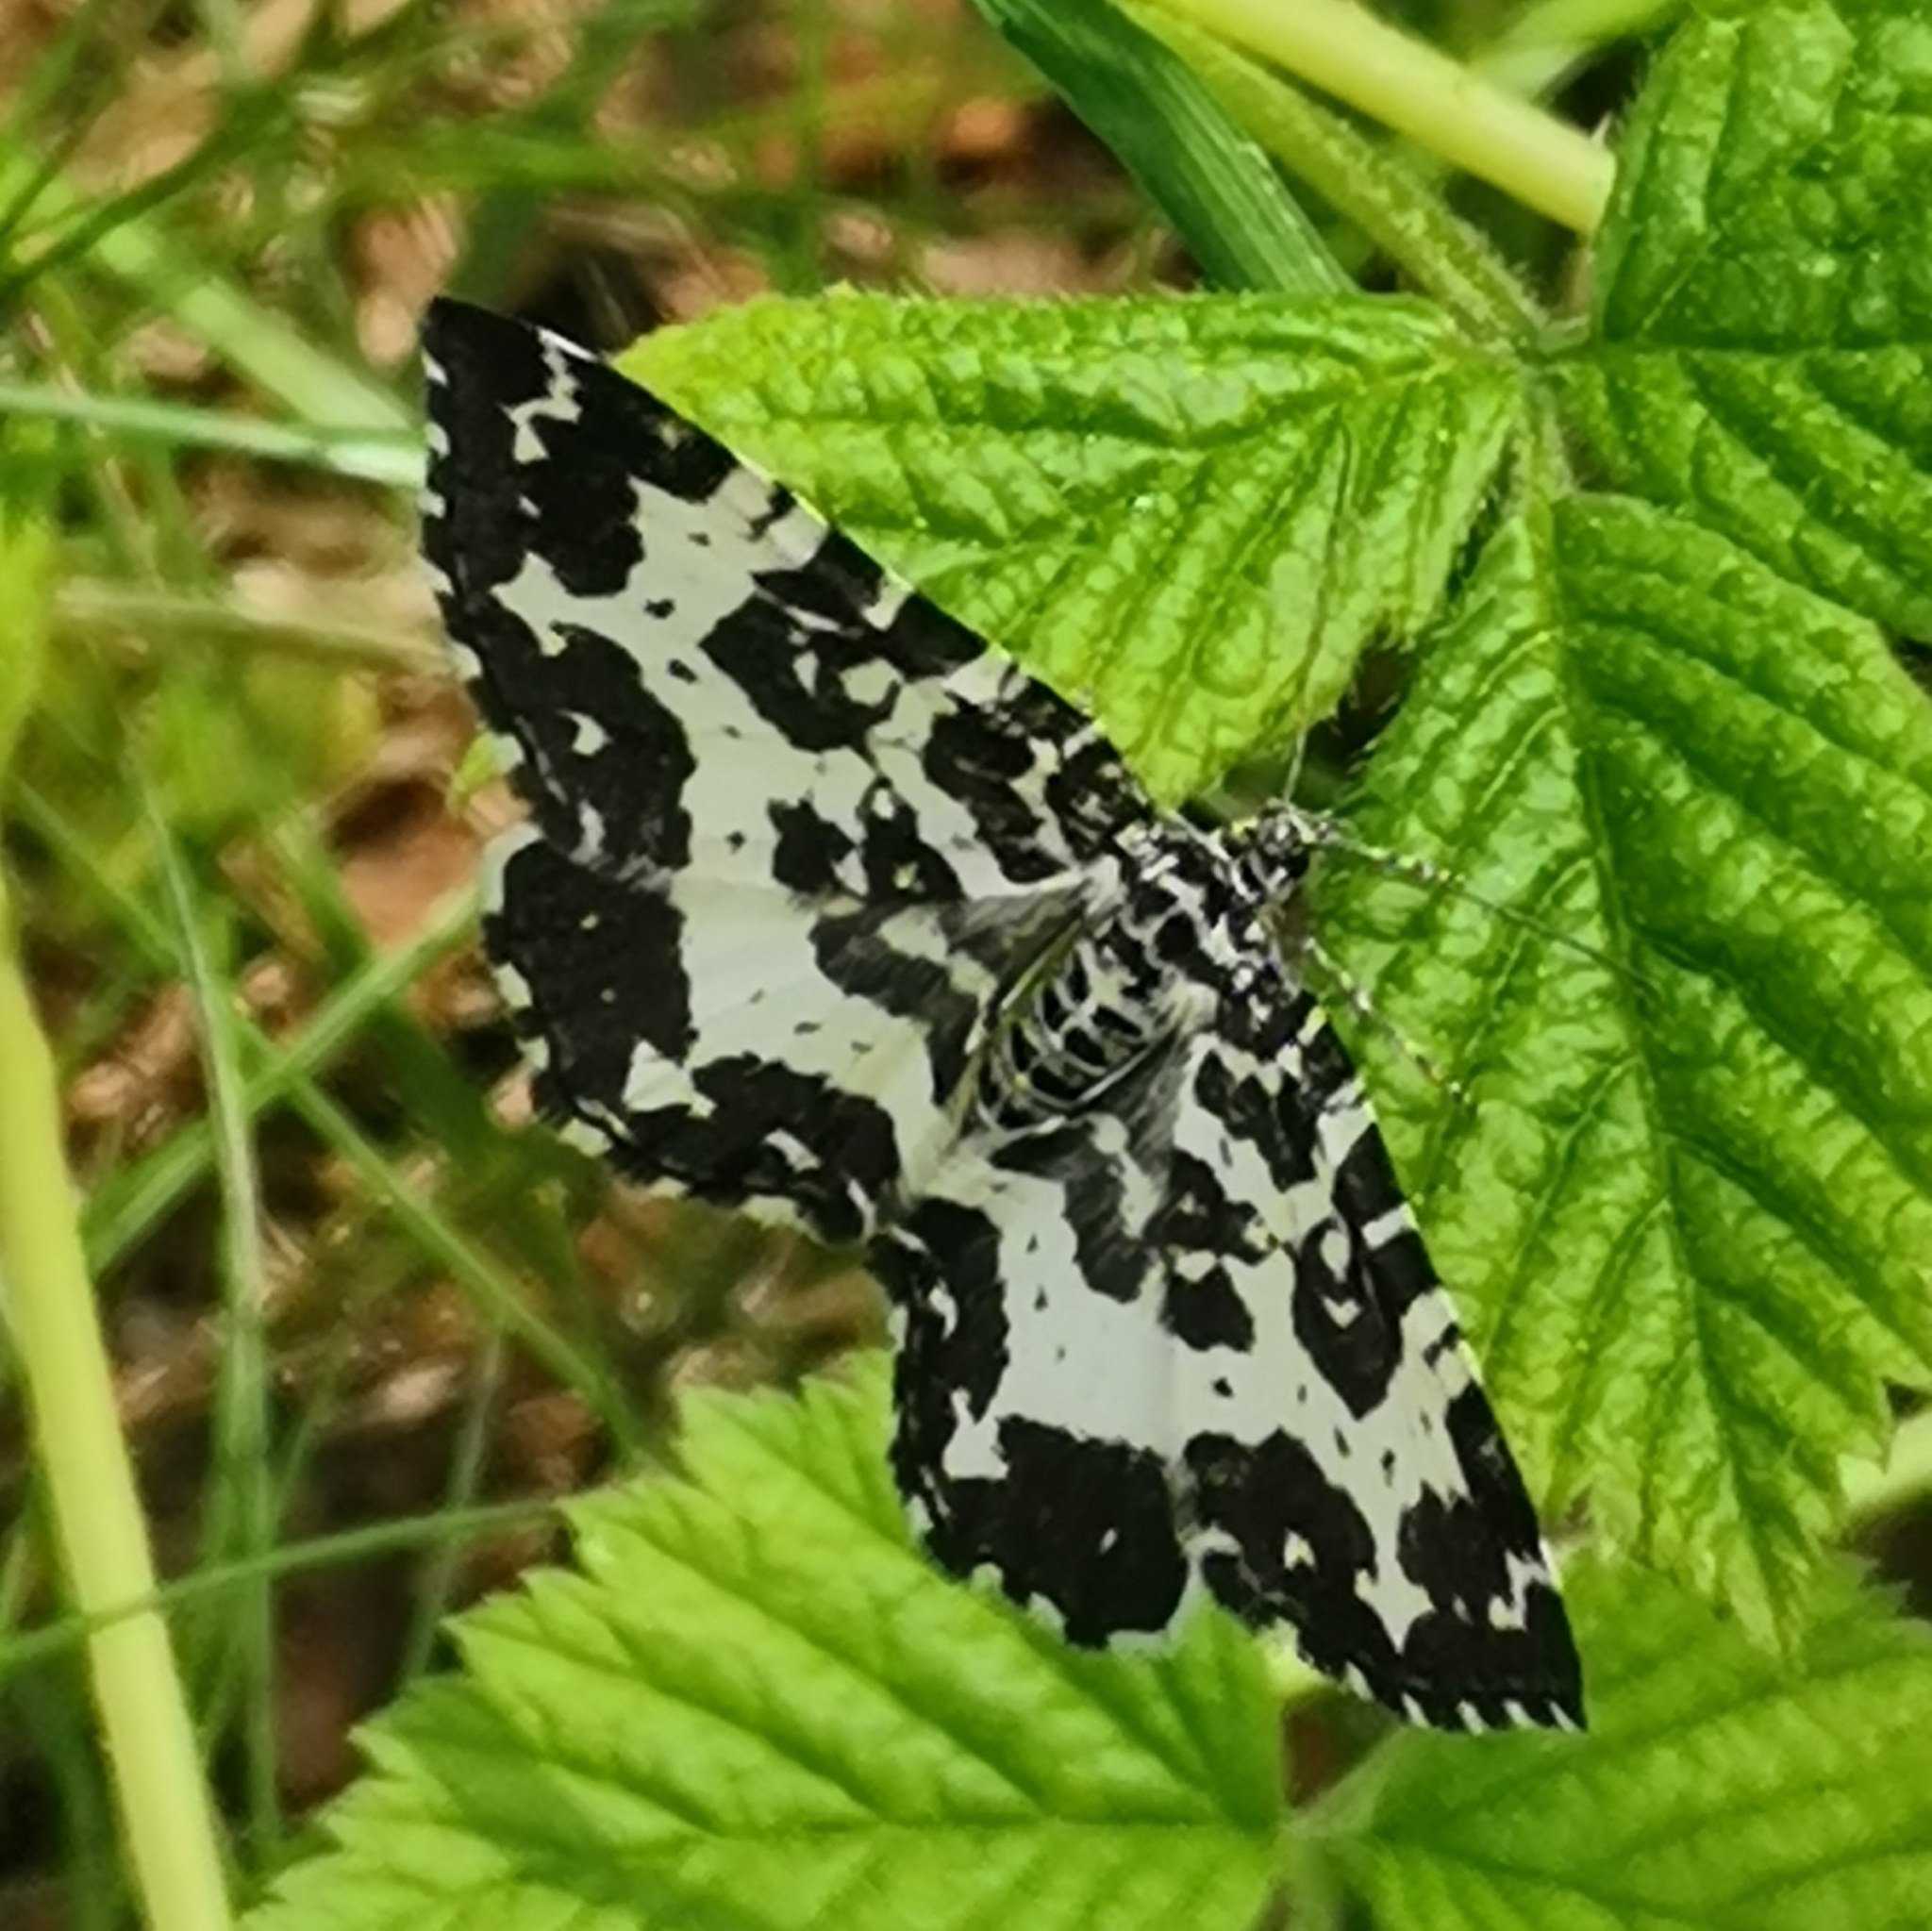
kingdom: Animalia
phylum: Arthropoda
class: Insecta
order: Lepidoptera
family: Geometridae
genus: Rheumaptera
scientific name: Rheumaptera hastata
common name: Argent & sable
